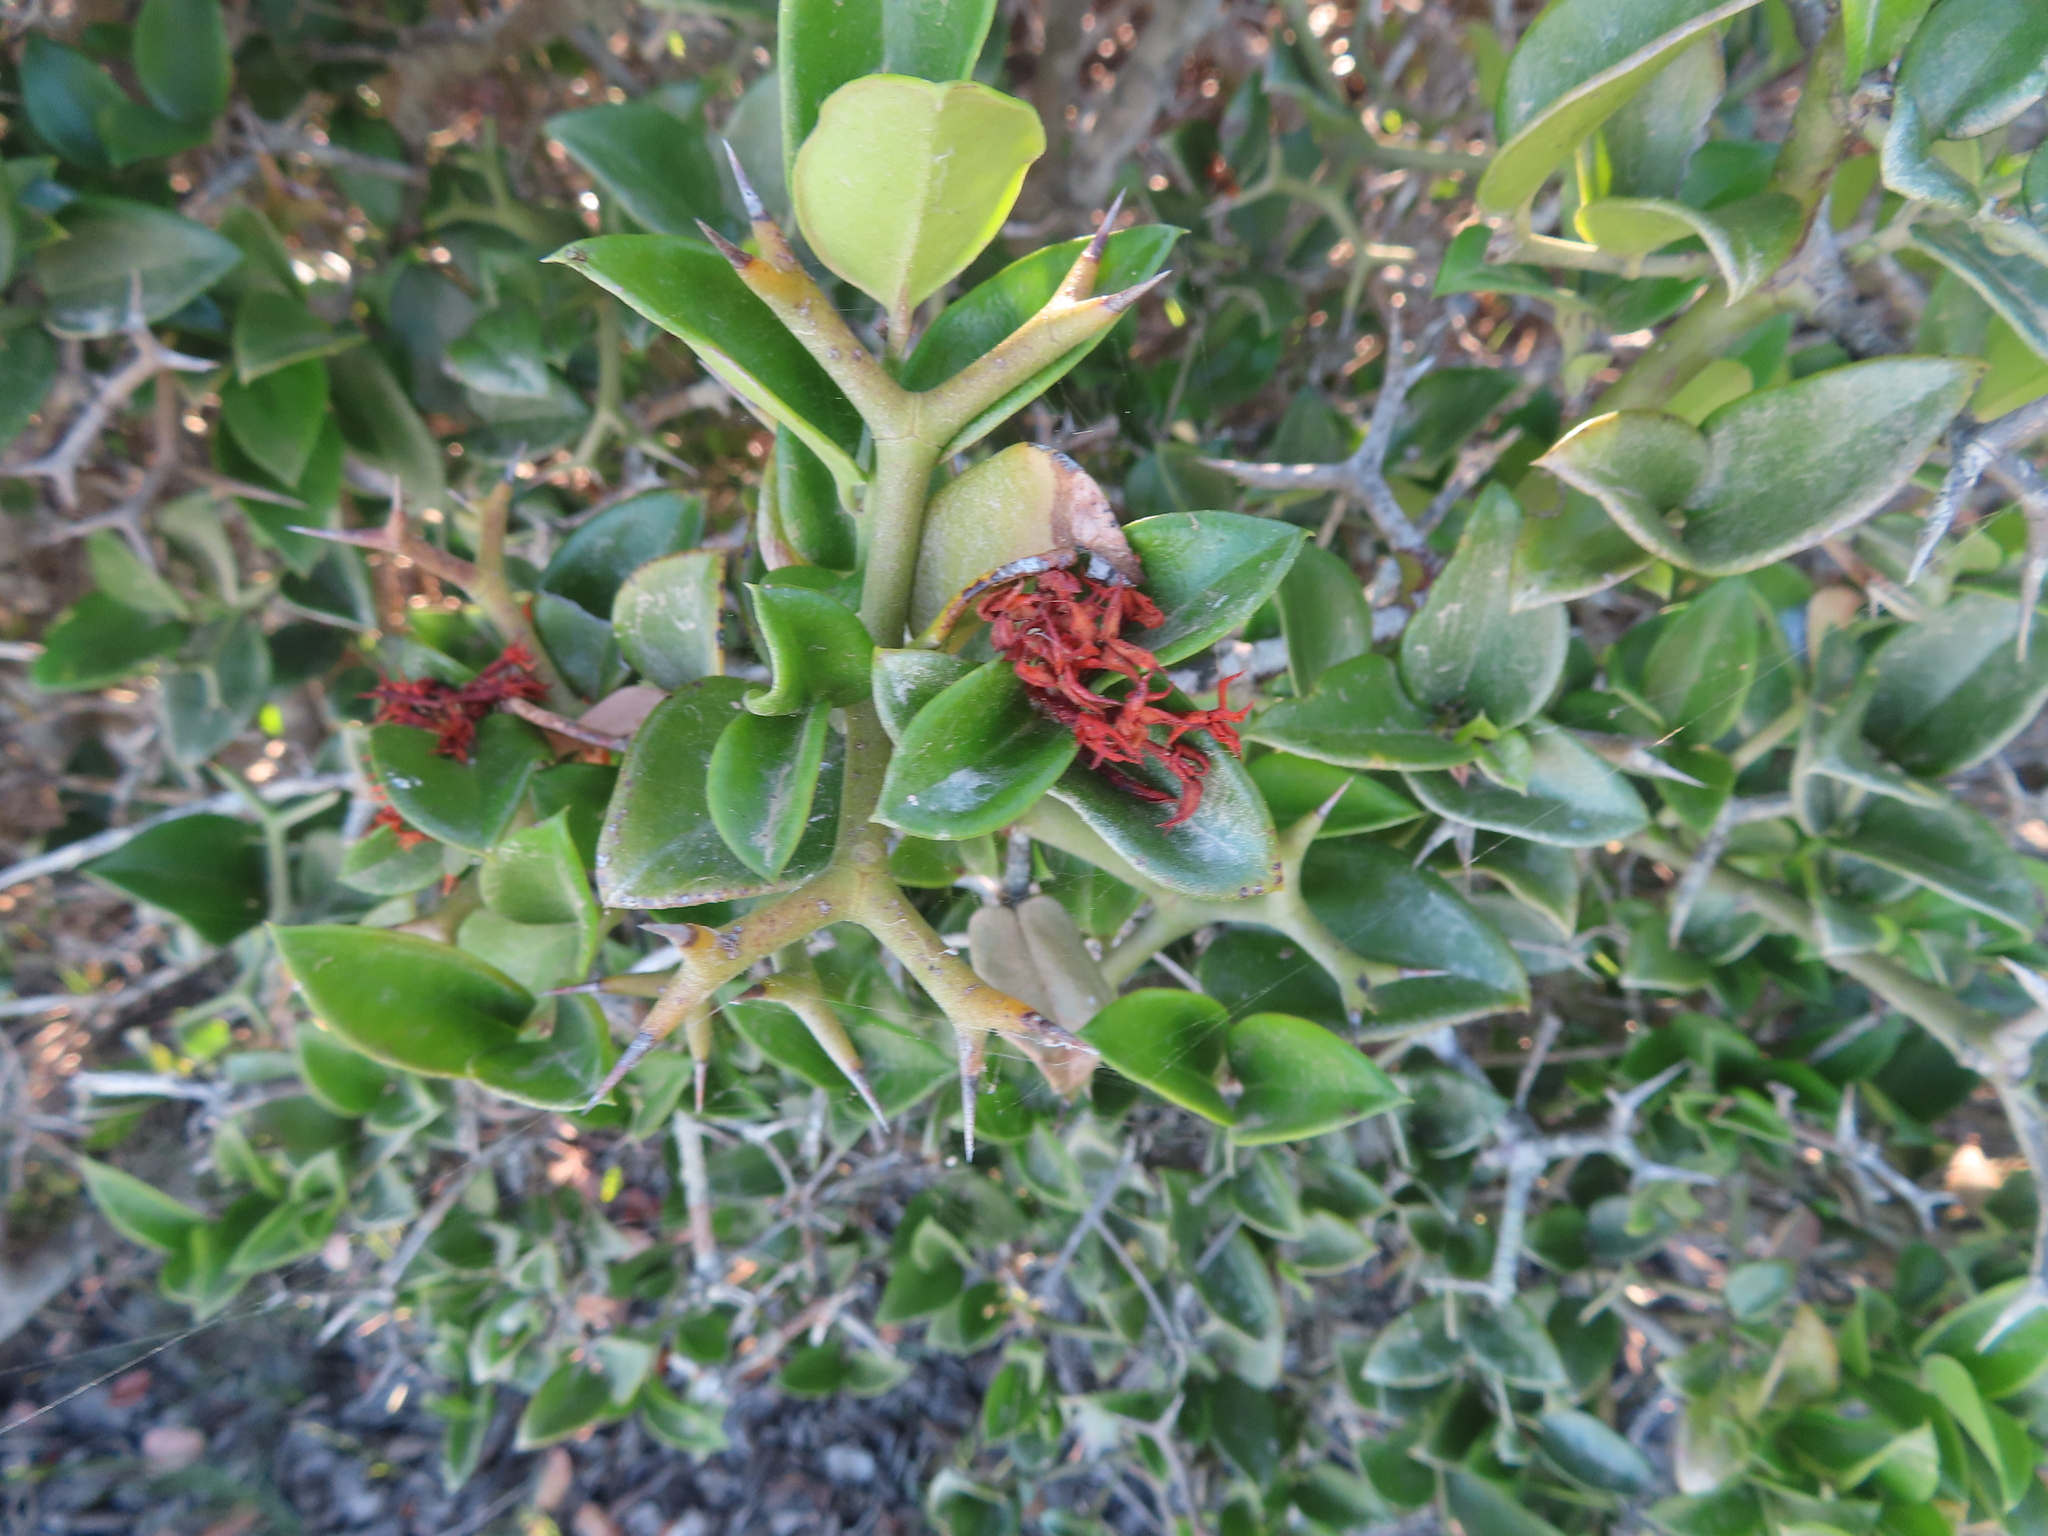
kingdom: Plantae
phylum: Tracheophyta
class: Magnoliopsida
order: Gentianales
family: Apocynaceae
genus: Carissa
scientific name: Carissa bispinosa
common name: Forest num-num
